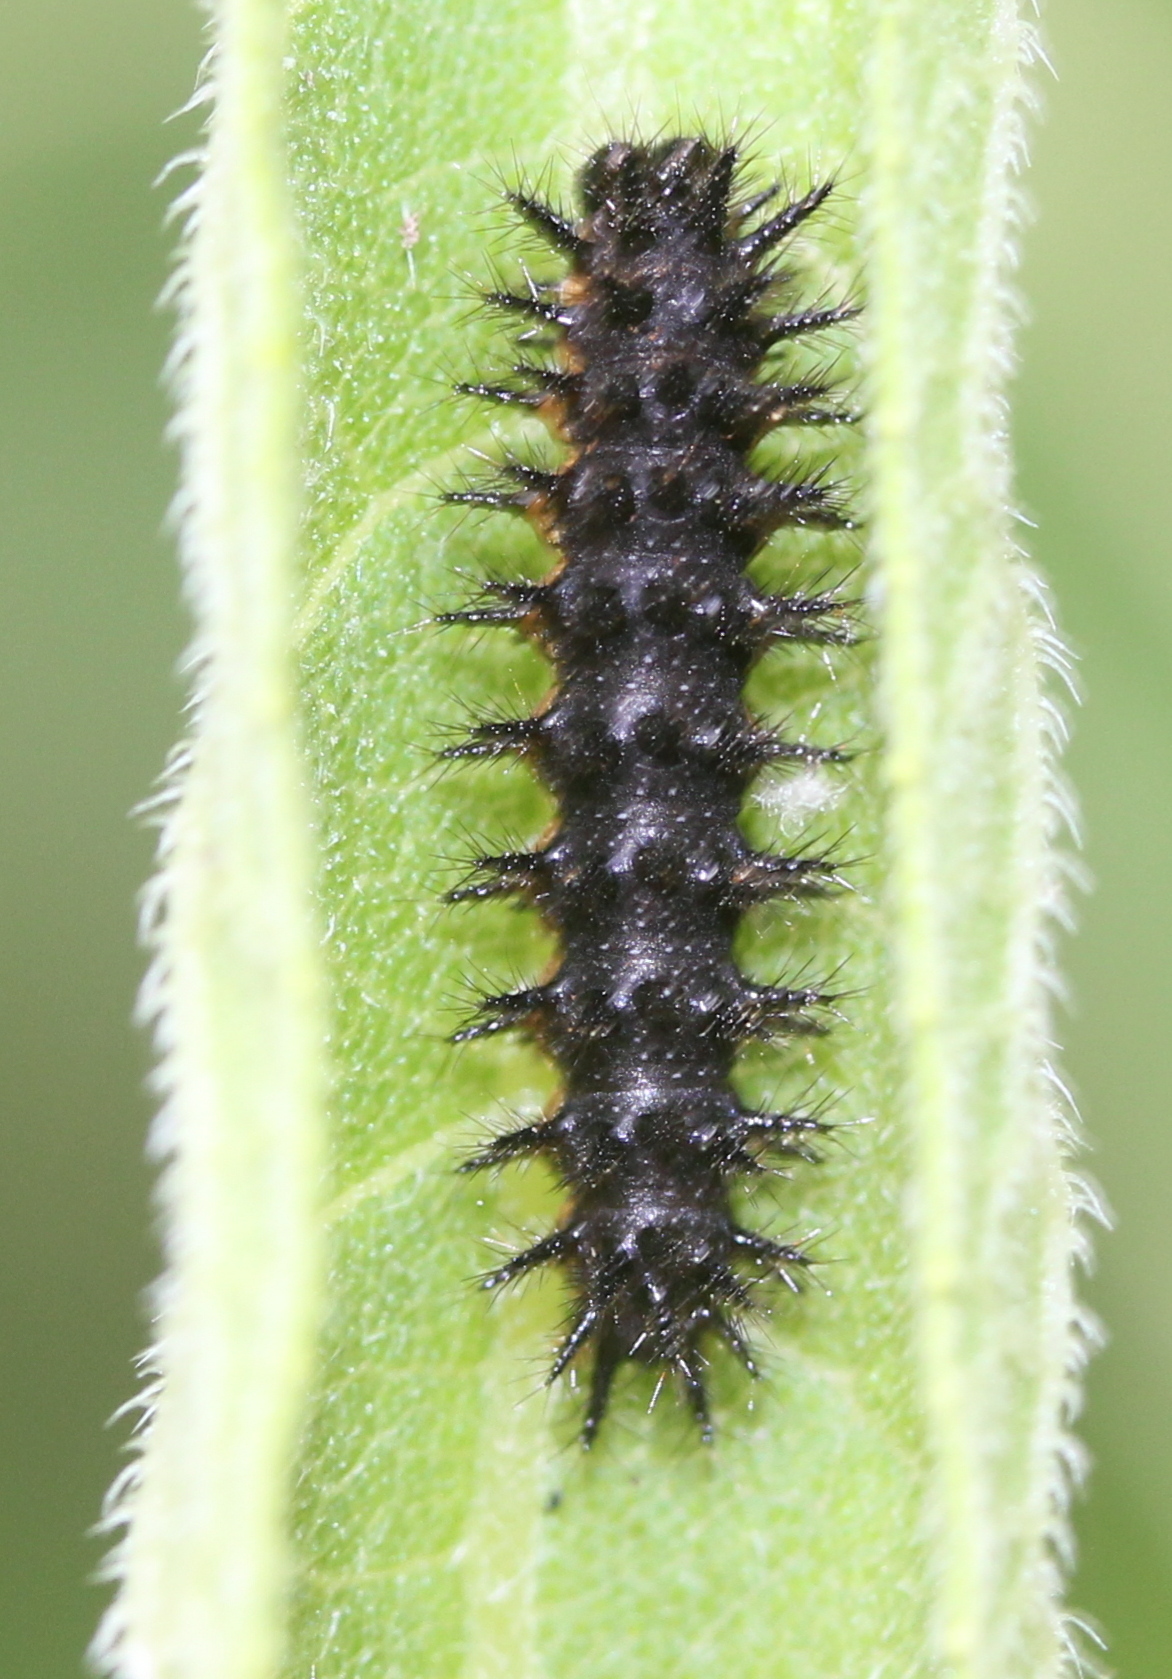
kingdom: Animalia
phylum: Arthropoda
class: Insecta
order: Lepidoptera
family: Nymphalidae
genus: Chlosyne
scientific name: Chlosyne nycteis
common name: Silvery checkerspot
